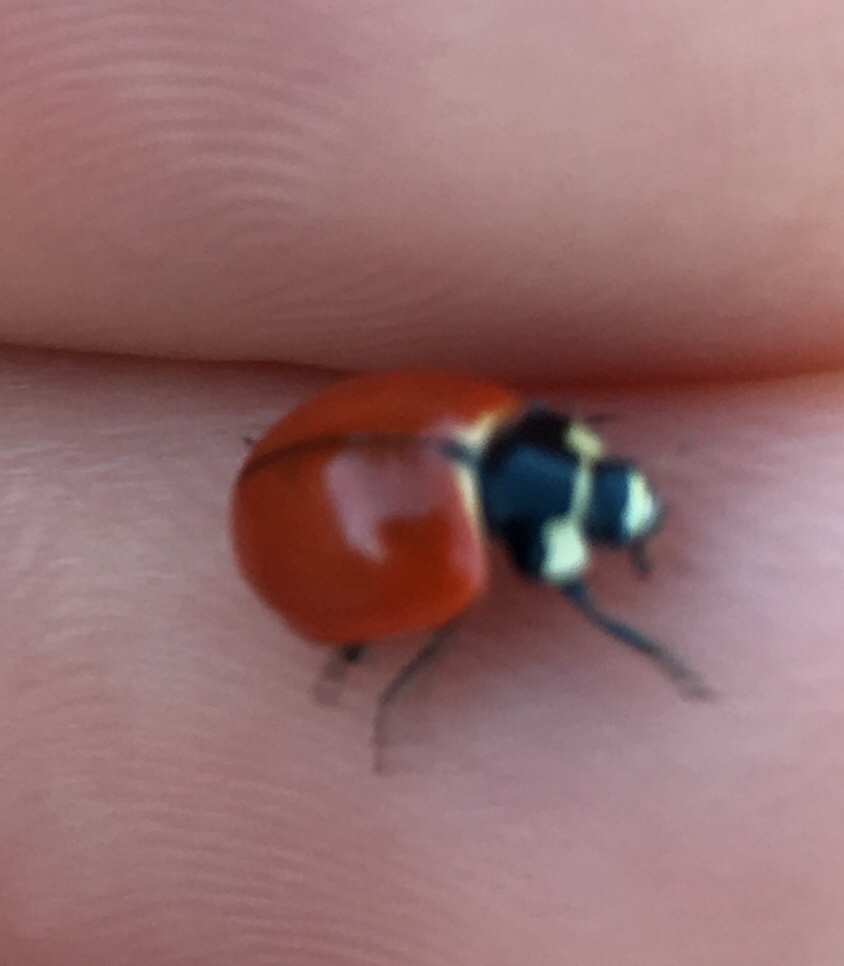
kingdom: Animalia
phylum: Arthropoda
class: Insecta
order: Coleoptera
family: Coccinellidae
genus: Coccinella
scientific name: Coccinella novemnotata
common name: Nine-spotted lady beetle
